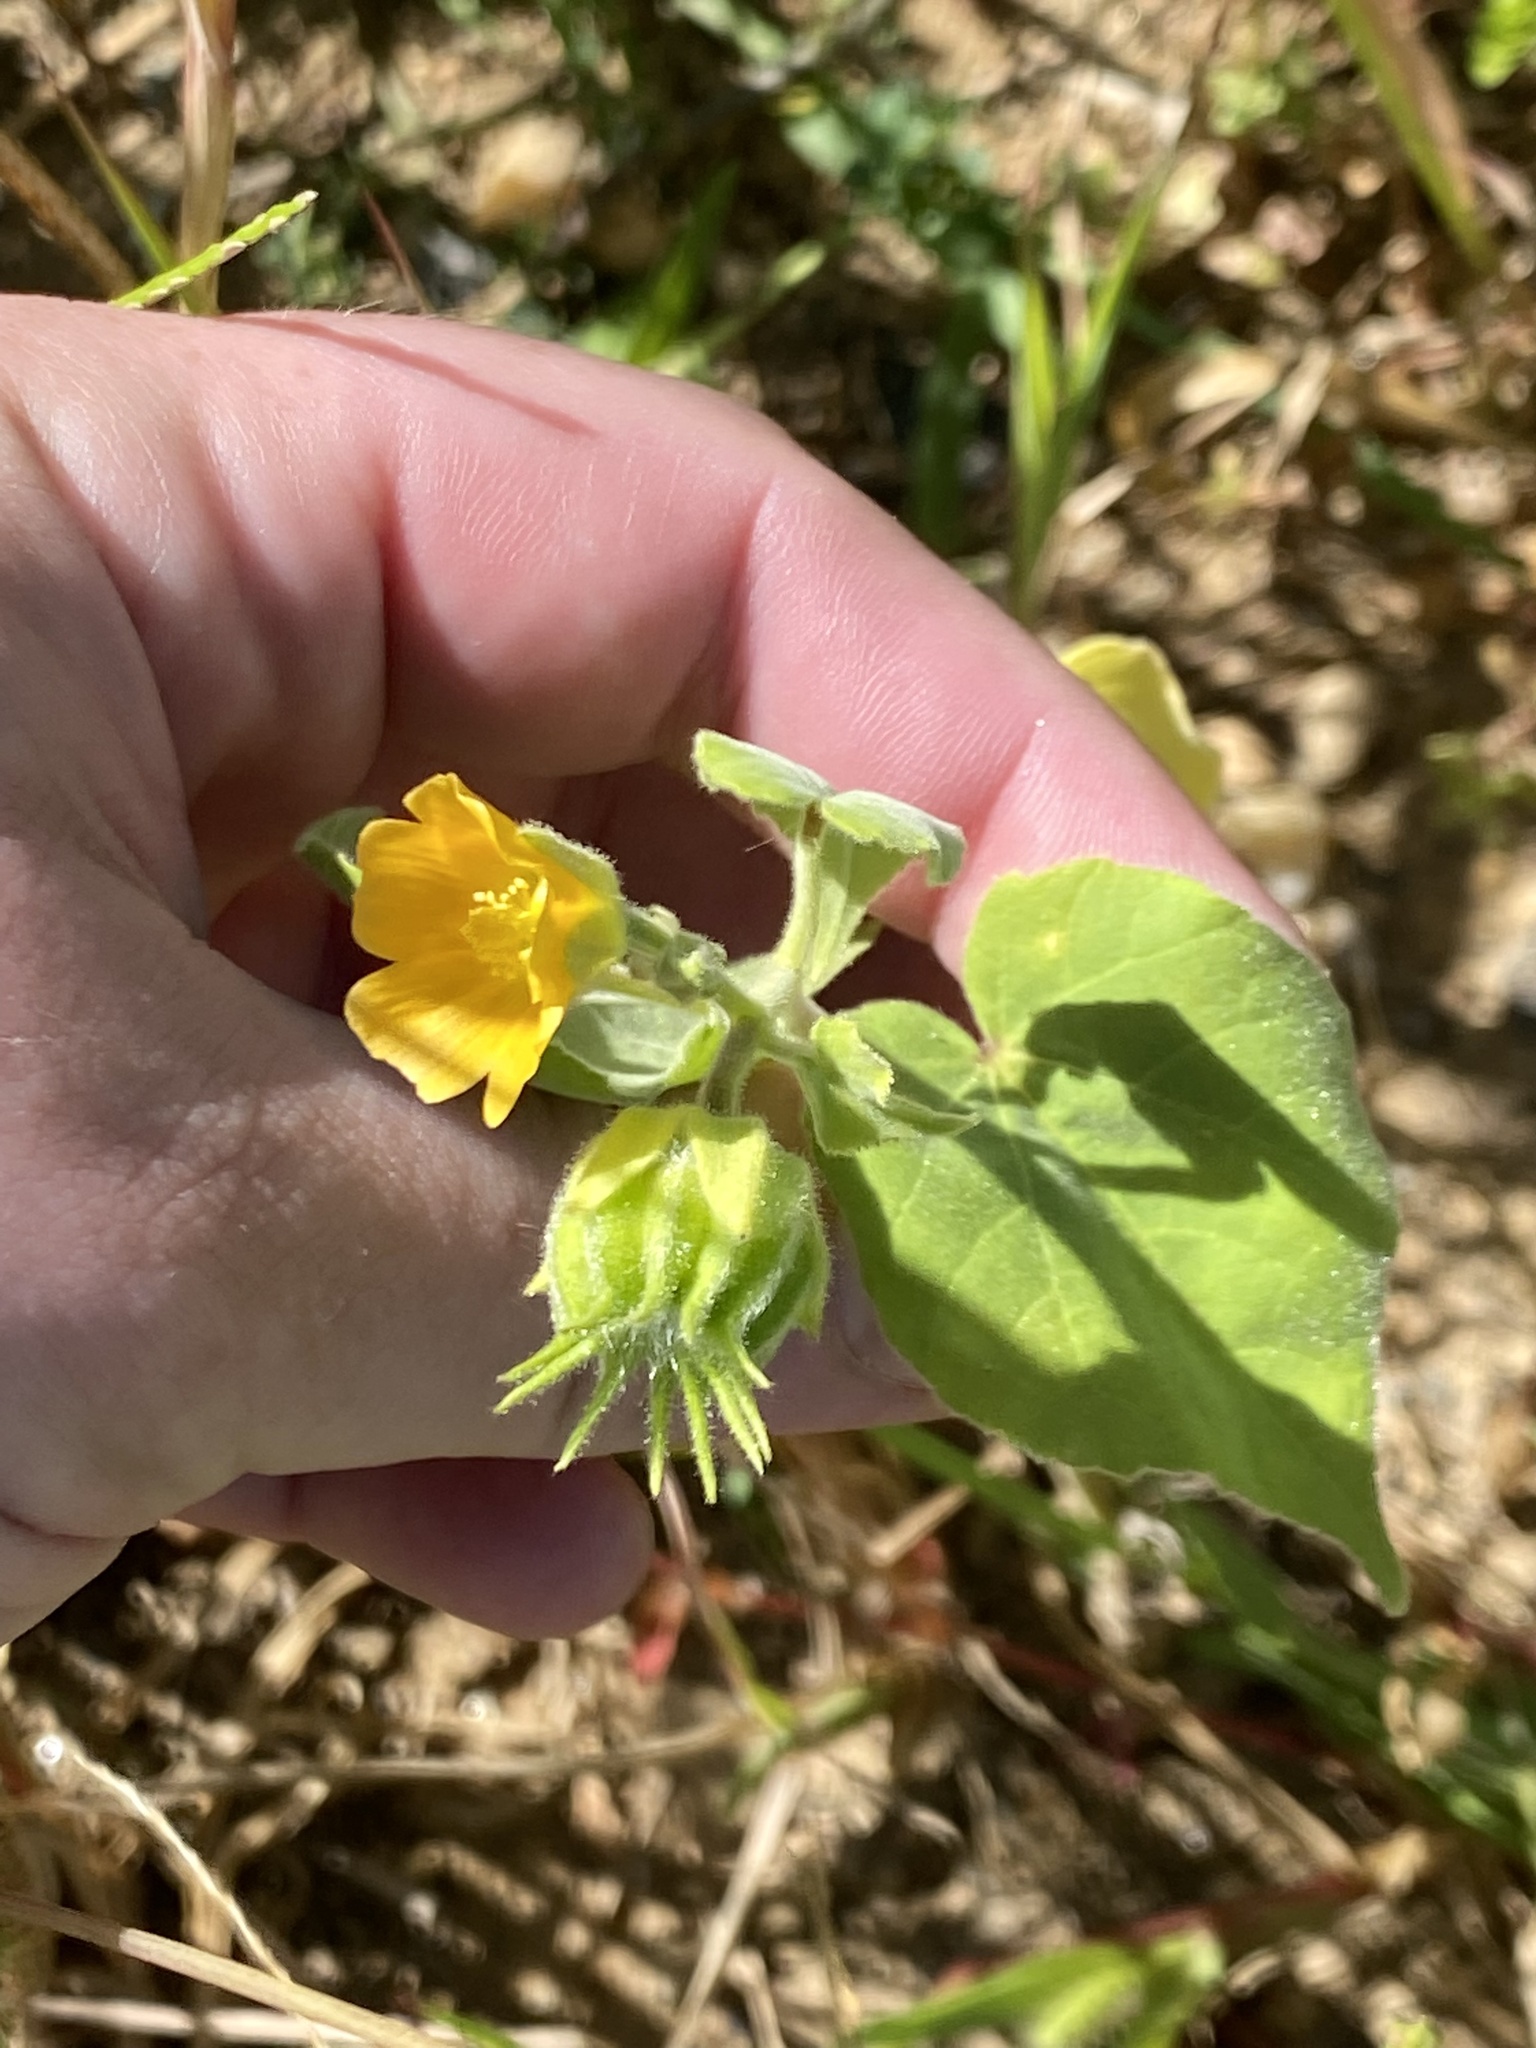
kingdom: Plantae
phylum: Tracheophyta
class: Magnoliopsida
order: Malvales
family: Malvaceae
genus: Abutilon
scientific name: Abutilon theophrasti
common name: Velvetleaf
